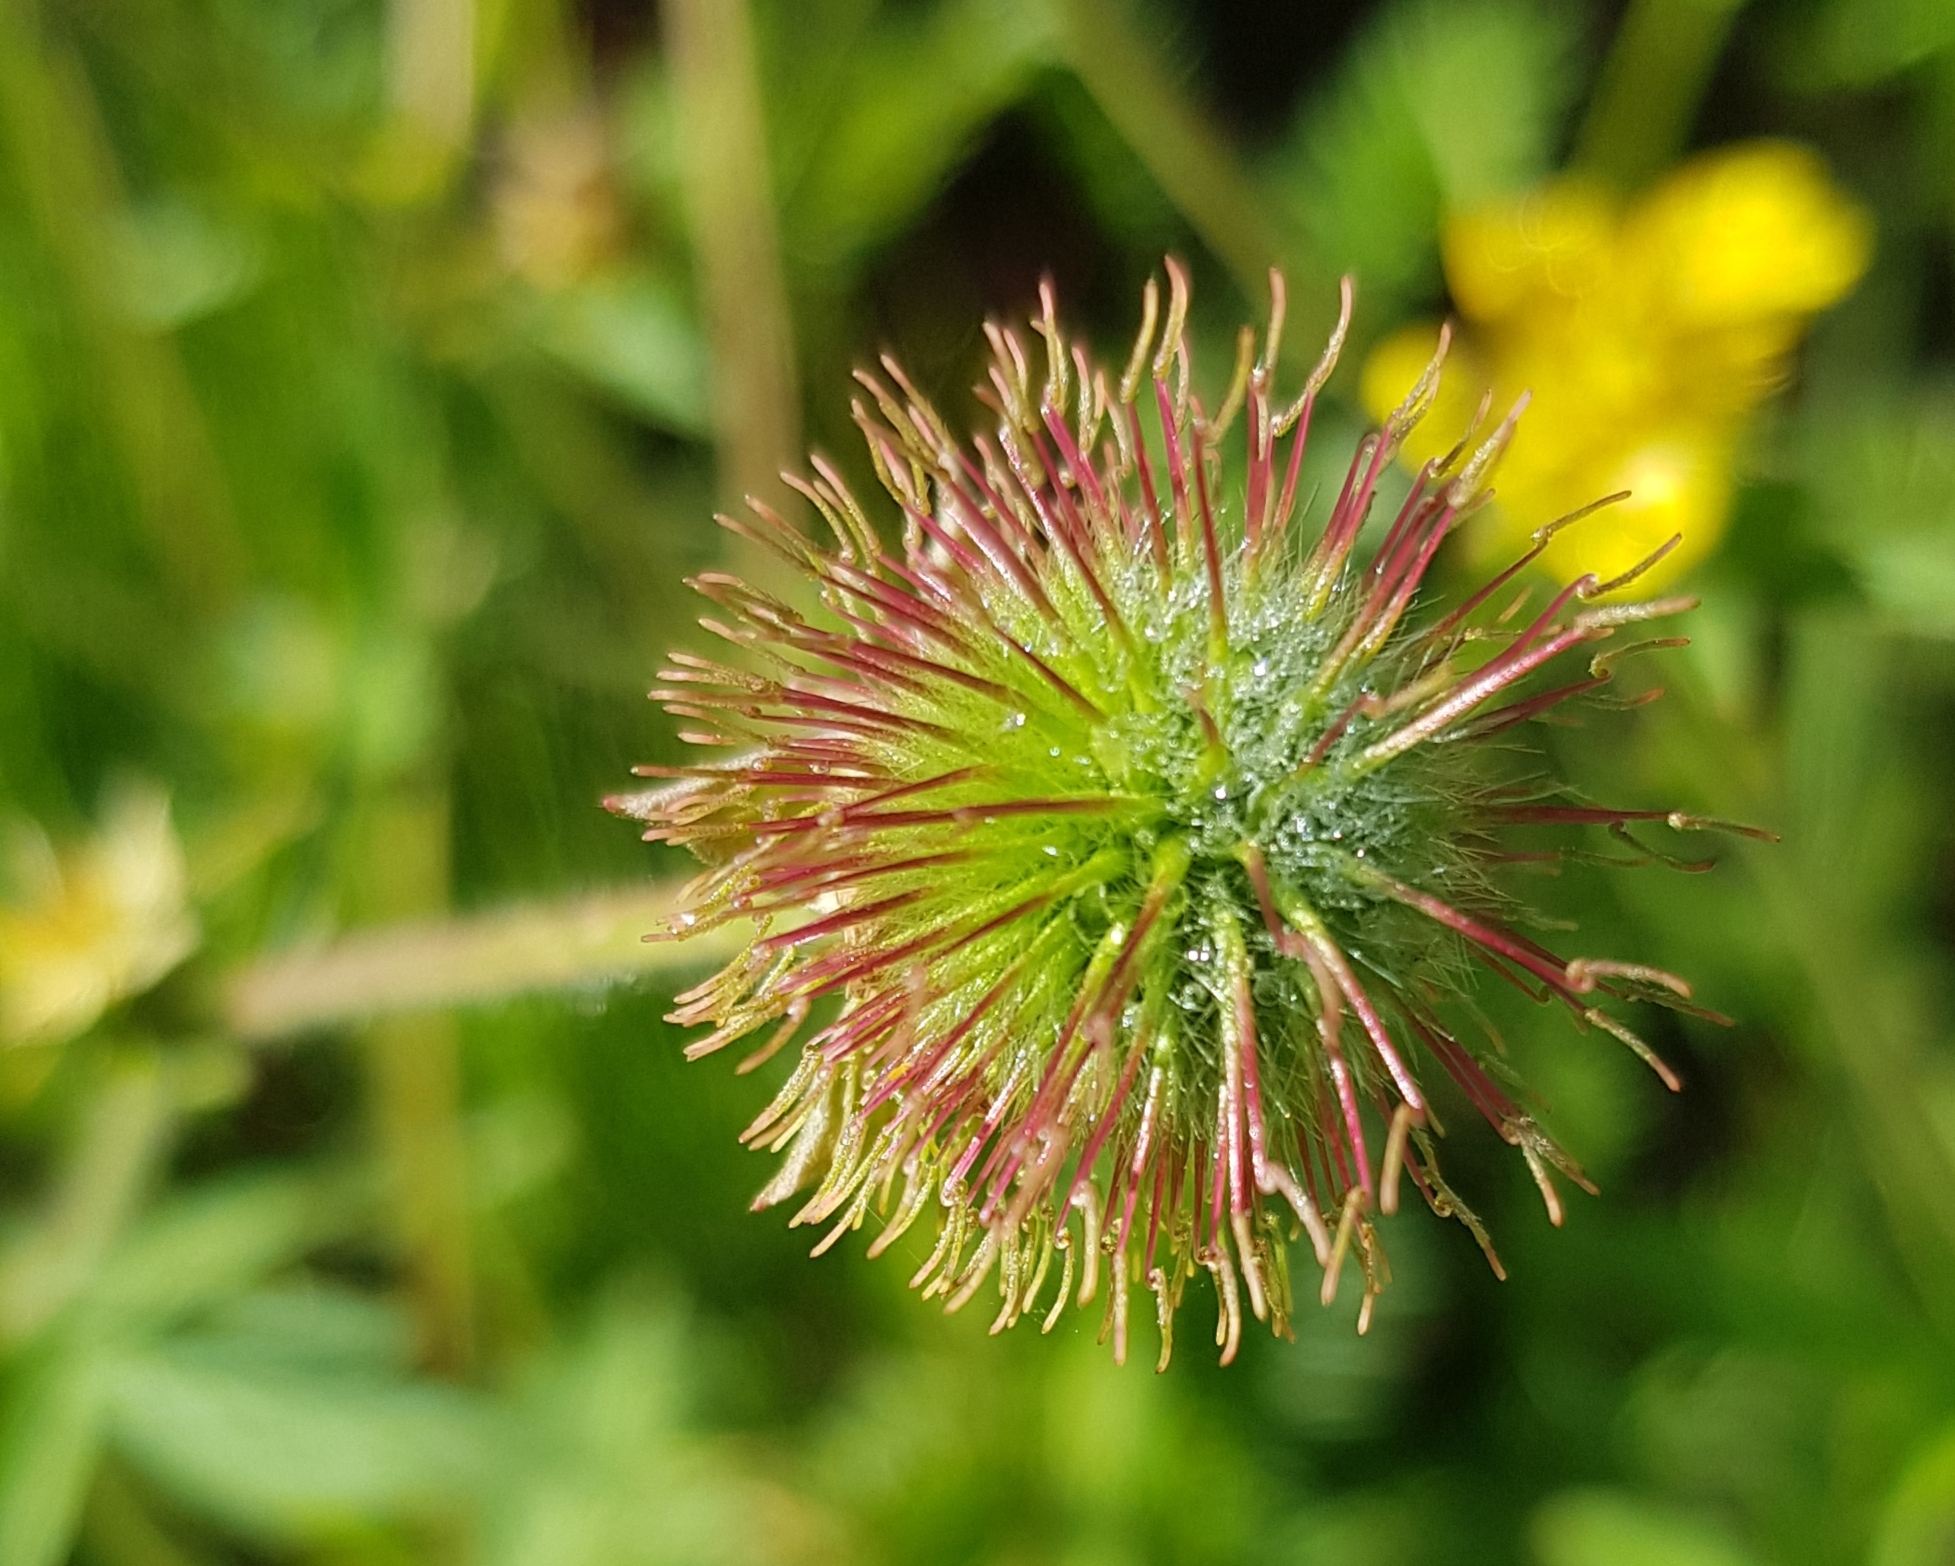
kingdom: Plantae
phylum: Tracheophyta
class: Magnoliopsida
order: Rosales
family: Rosaceae
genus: Geum
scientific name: Geum aleppicum
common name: Yellow avens
